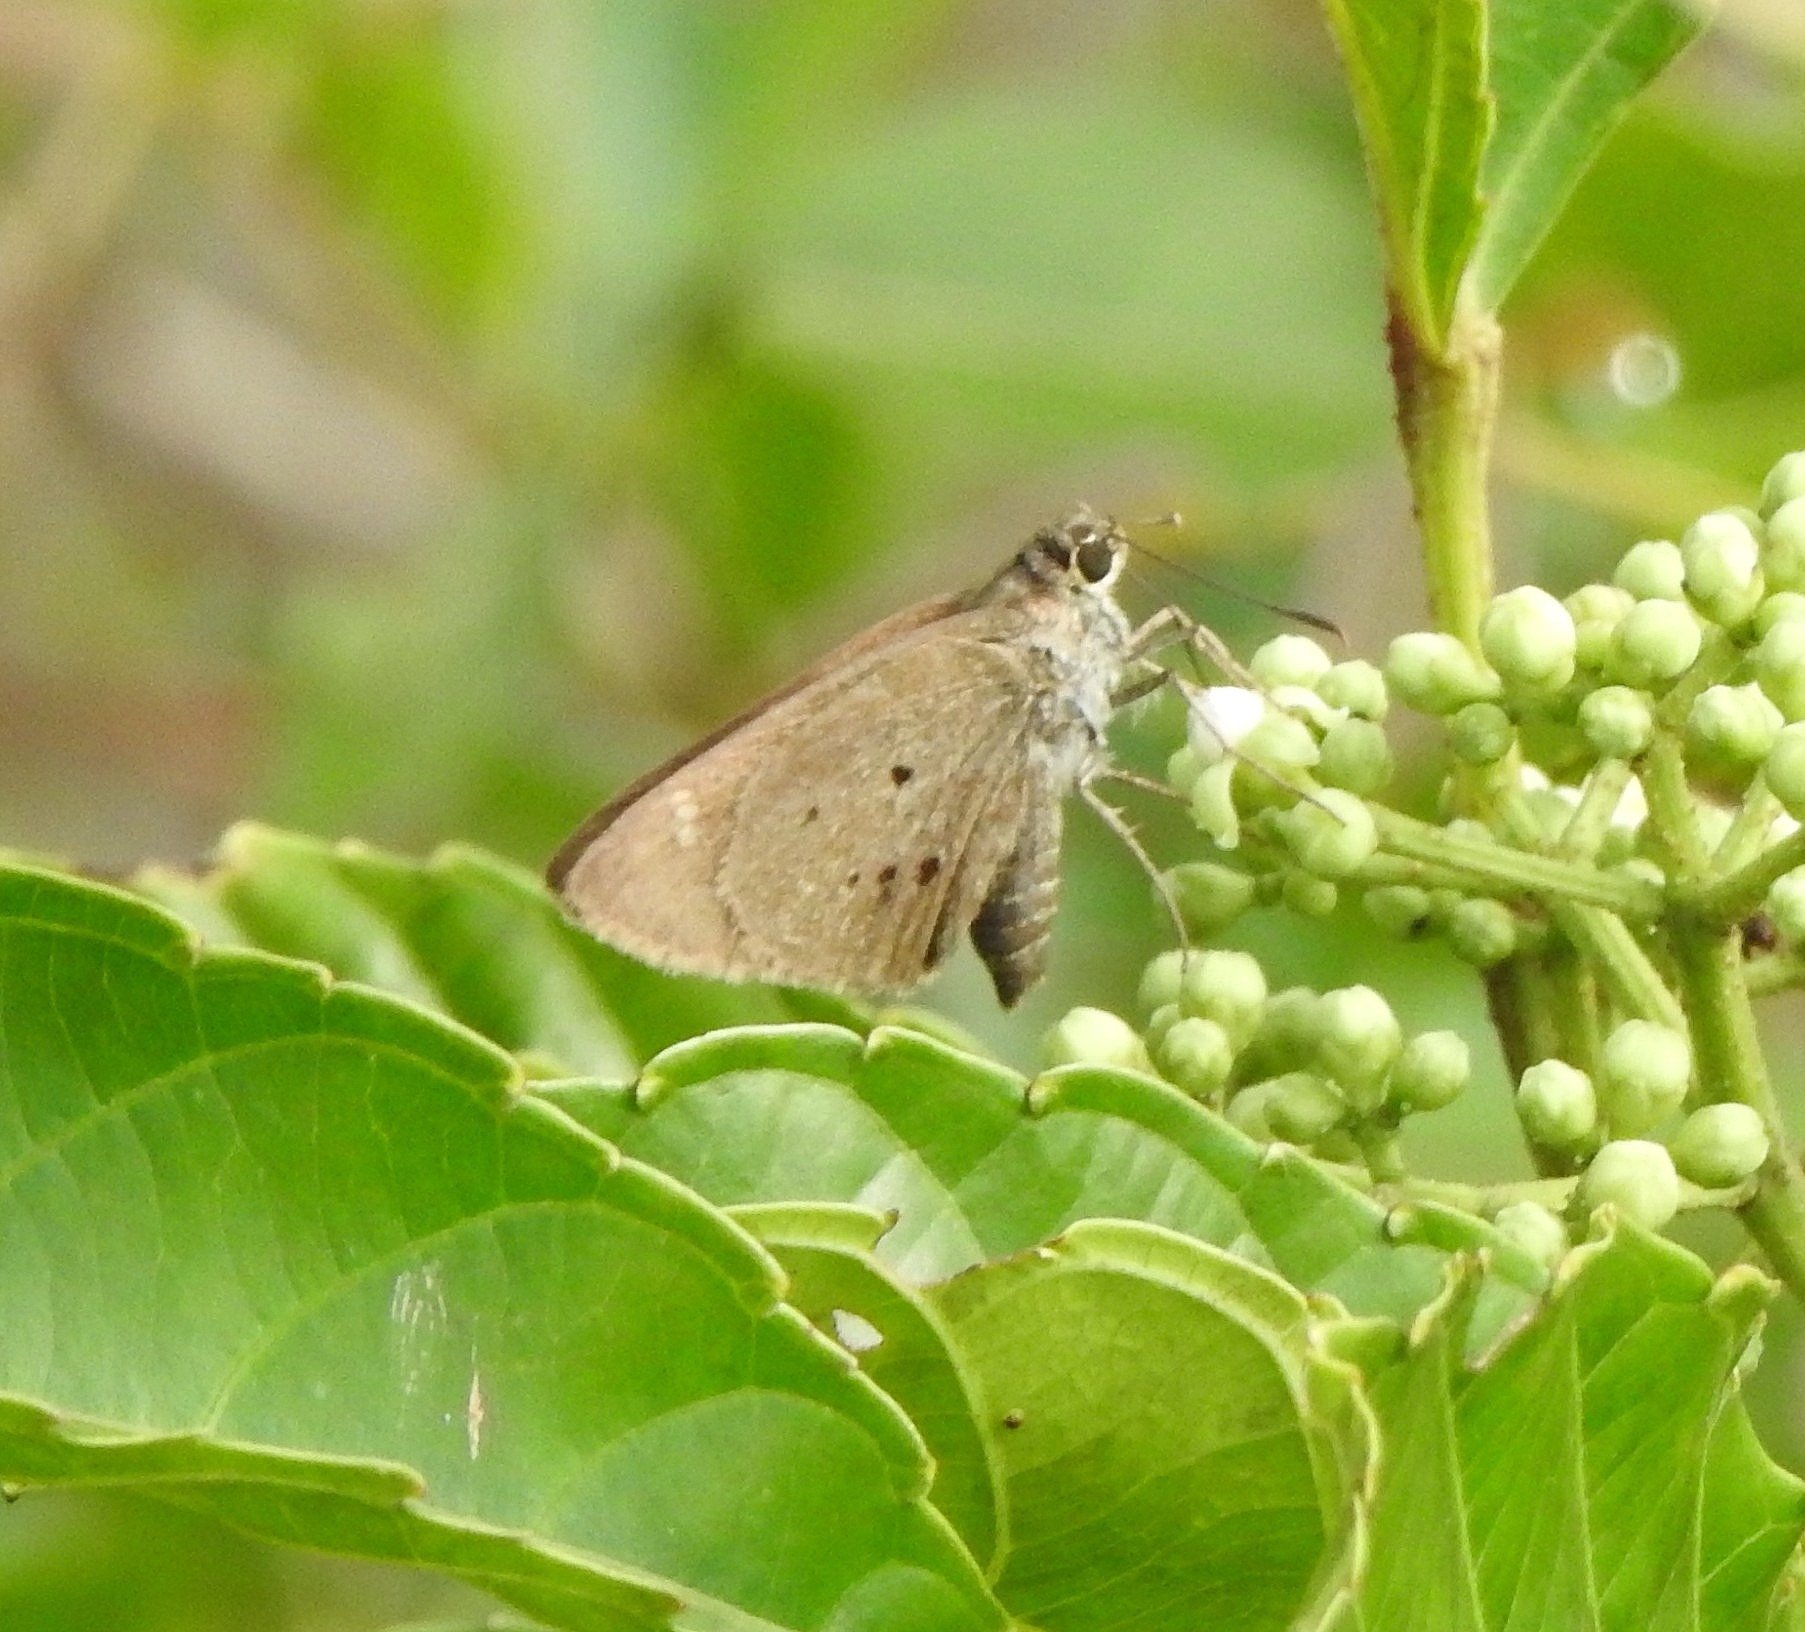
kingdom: Animalia
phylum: Arthropoda
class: Insecta
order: Lepidoptera
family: Hesperiidae
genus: Suastus
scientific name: Suastus gremius
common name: Indian palm bob
